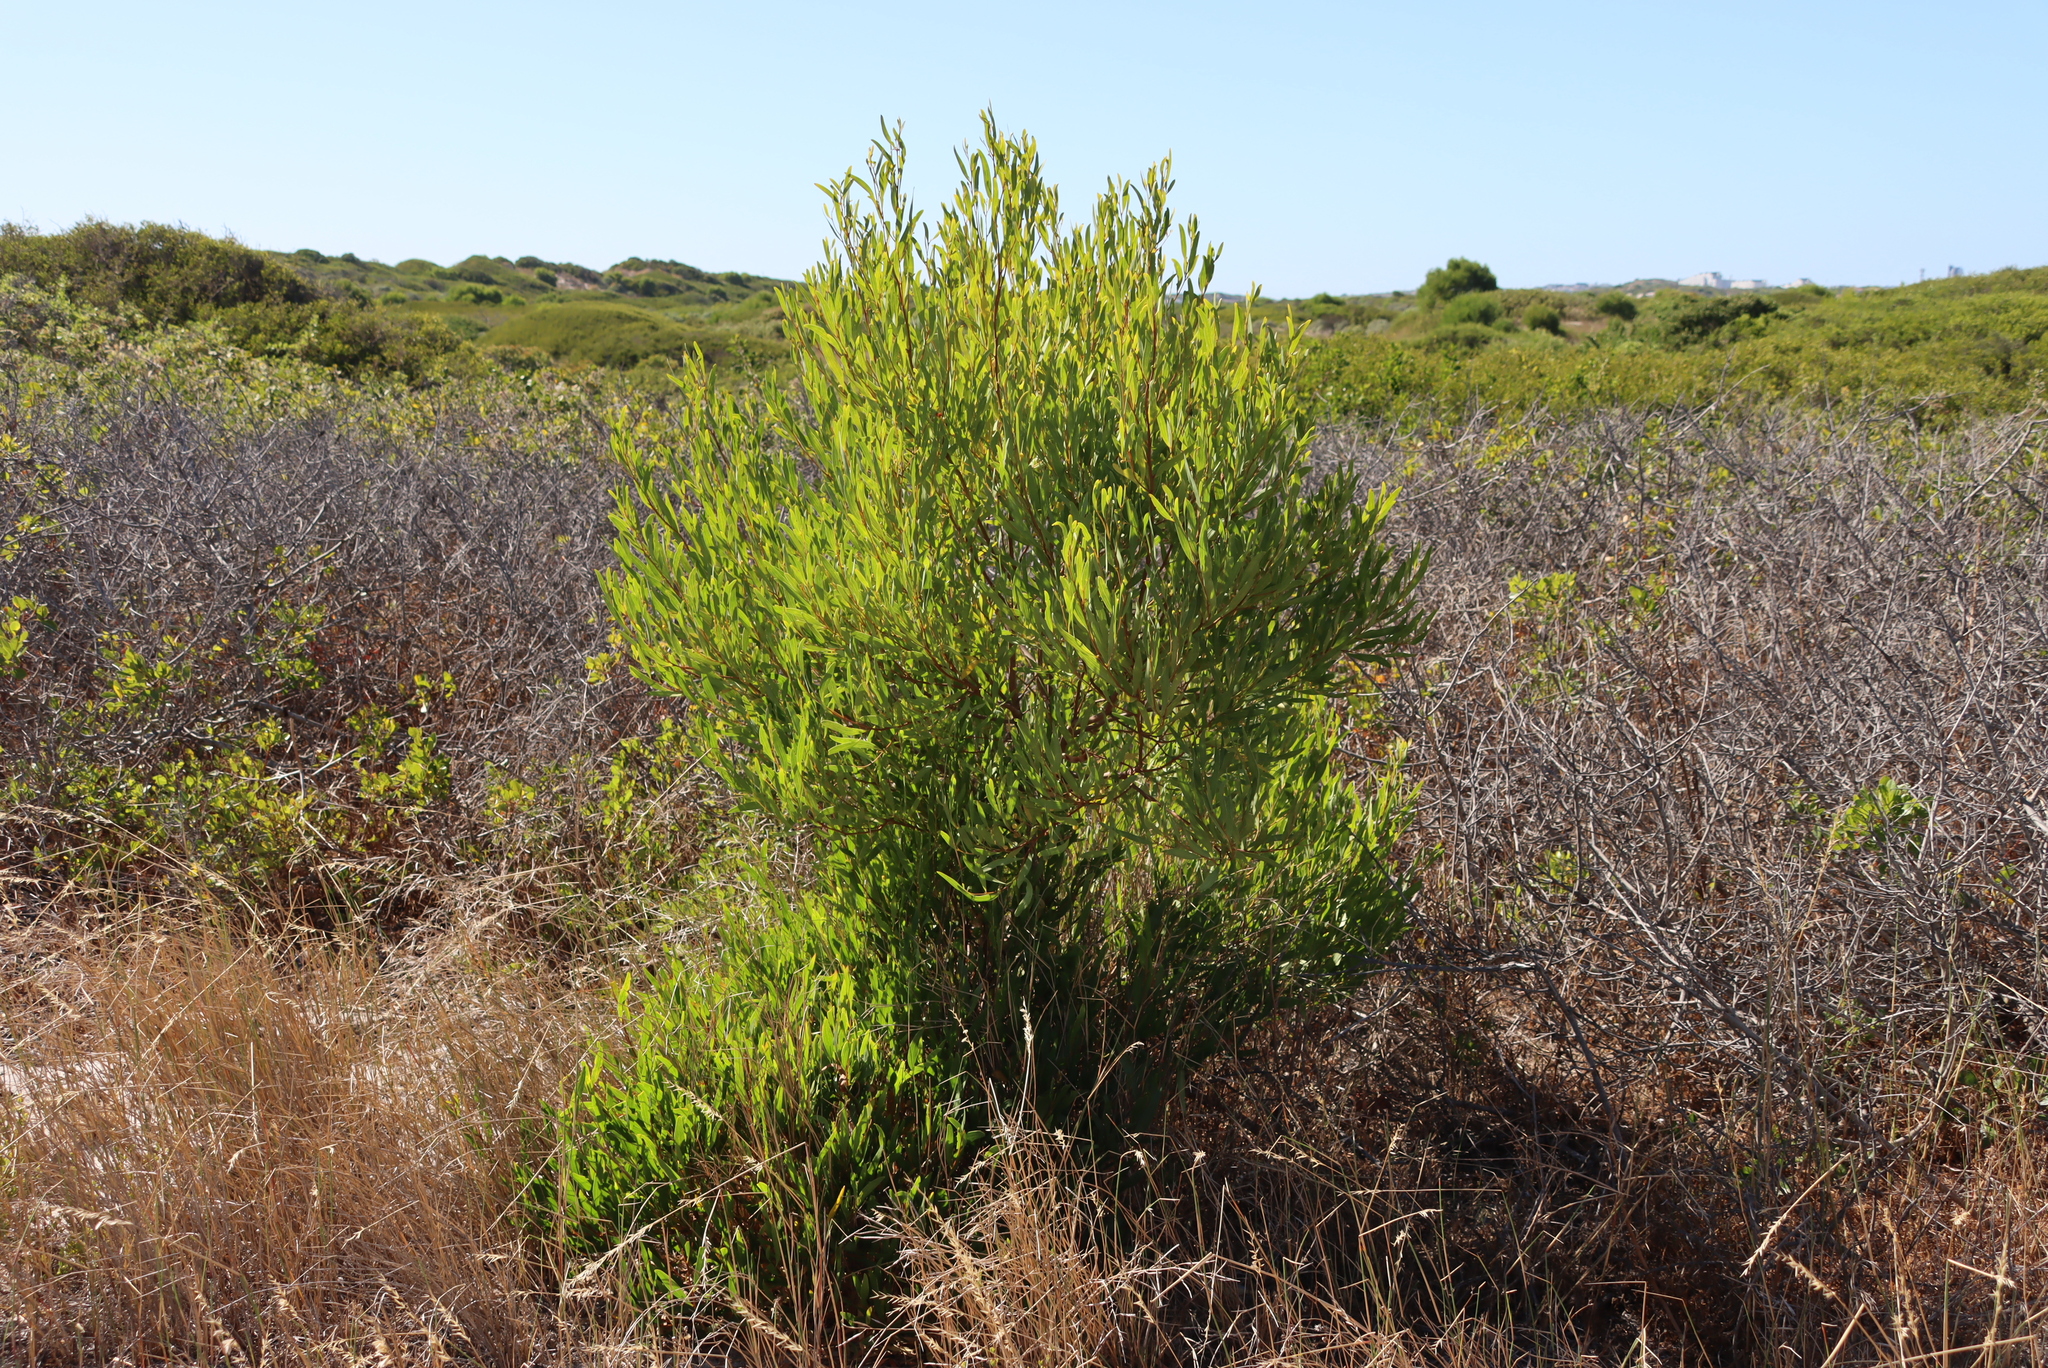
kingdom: Plantae
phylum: Tracheophyta
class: Magnoliopsida
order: Fabales
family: Fabaceae
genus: Acacia
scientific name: Acacia cyclops
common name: Coastal wattle
